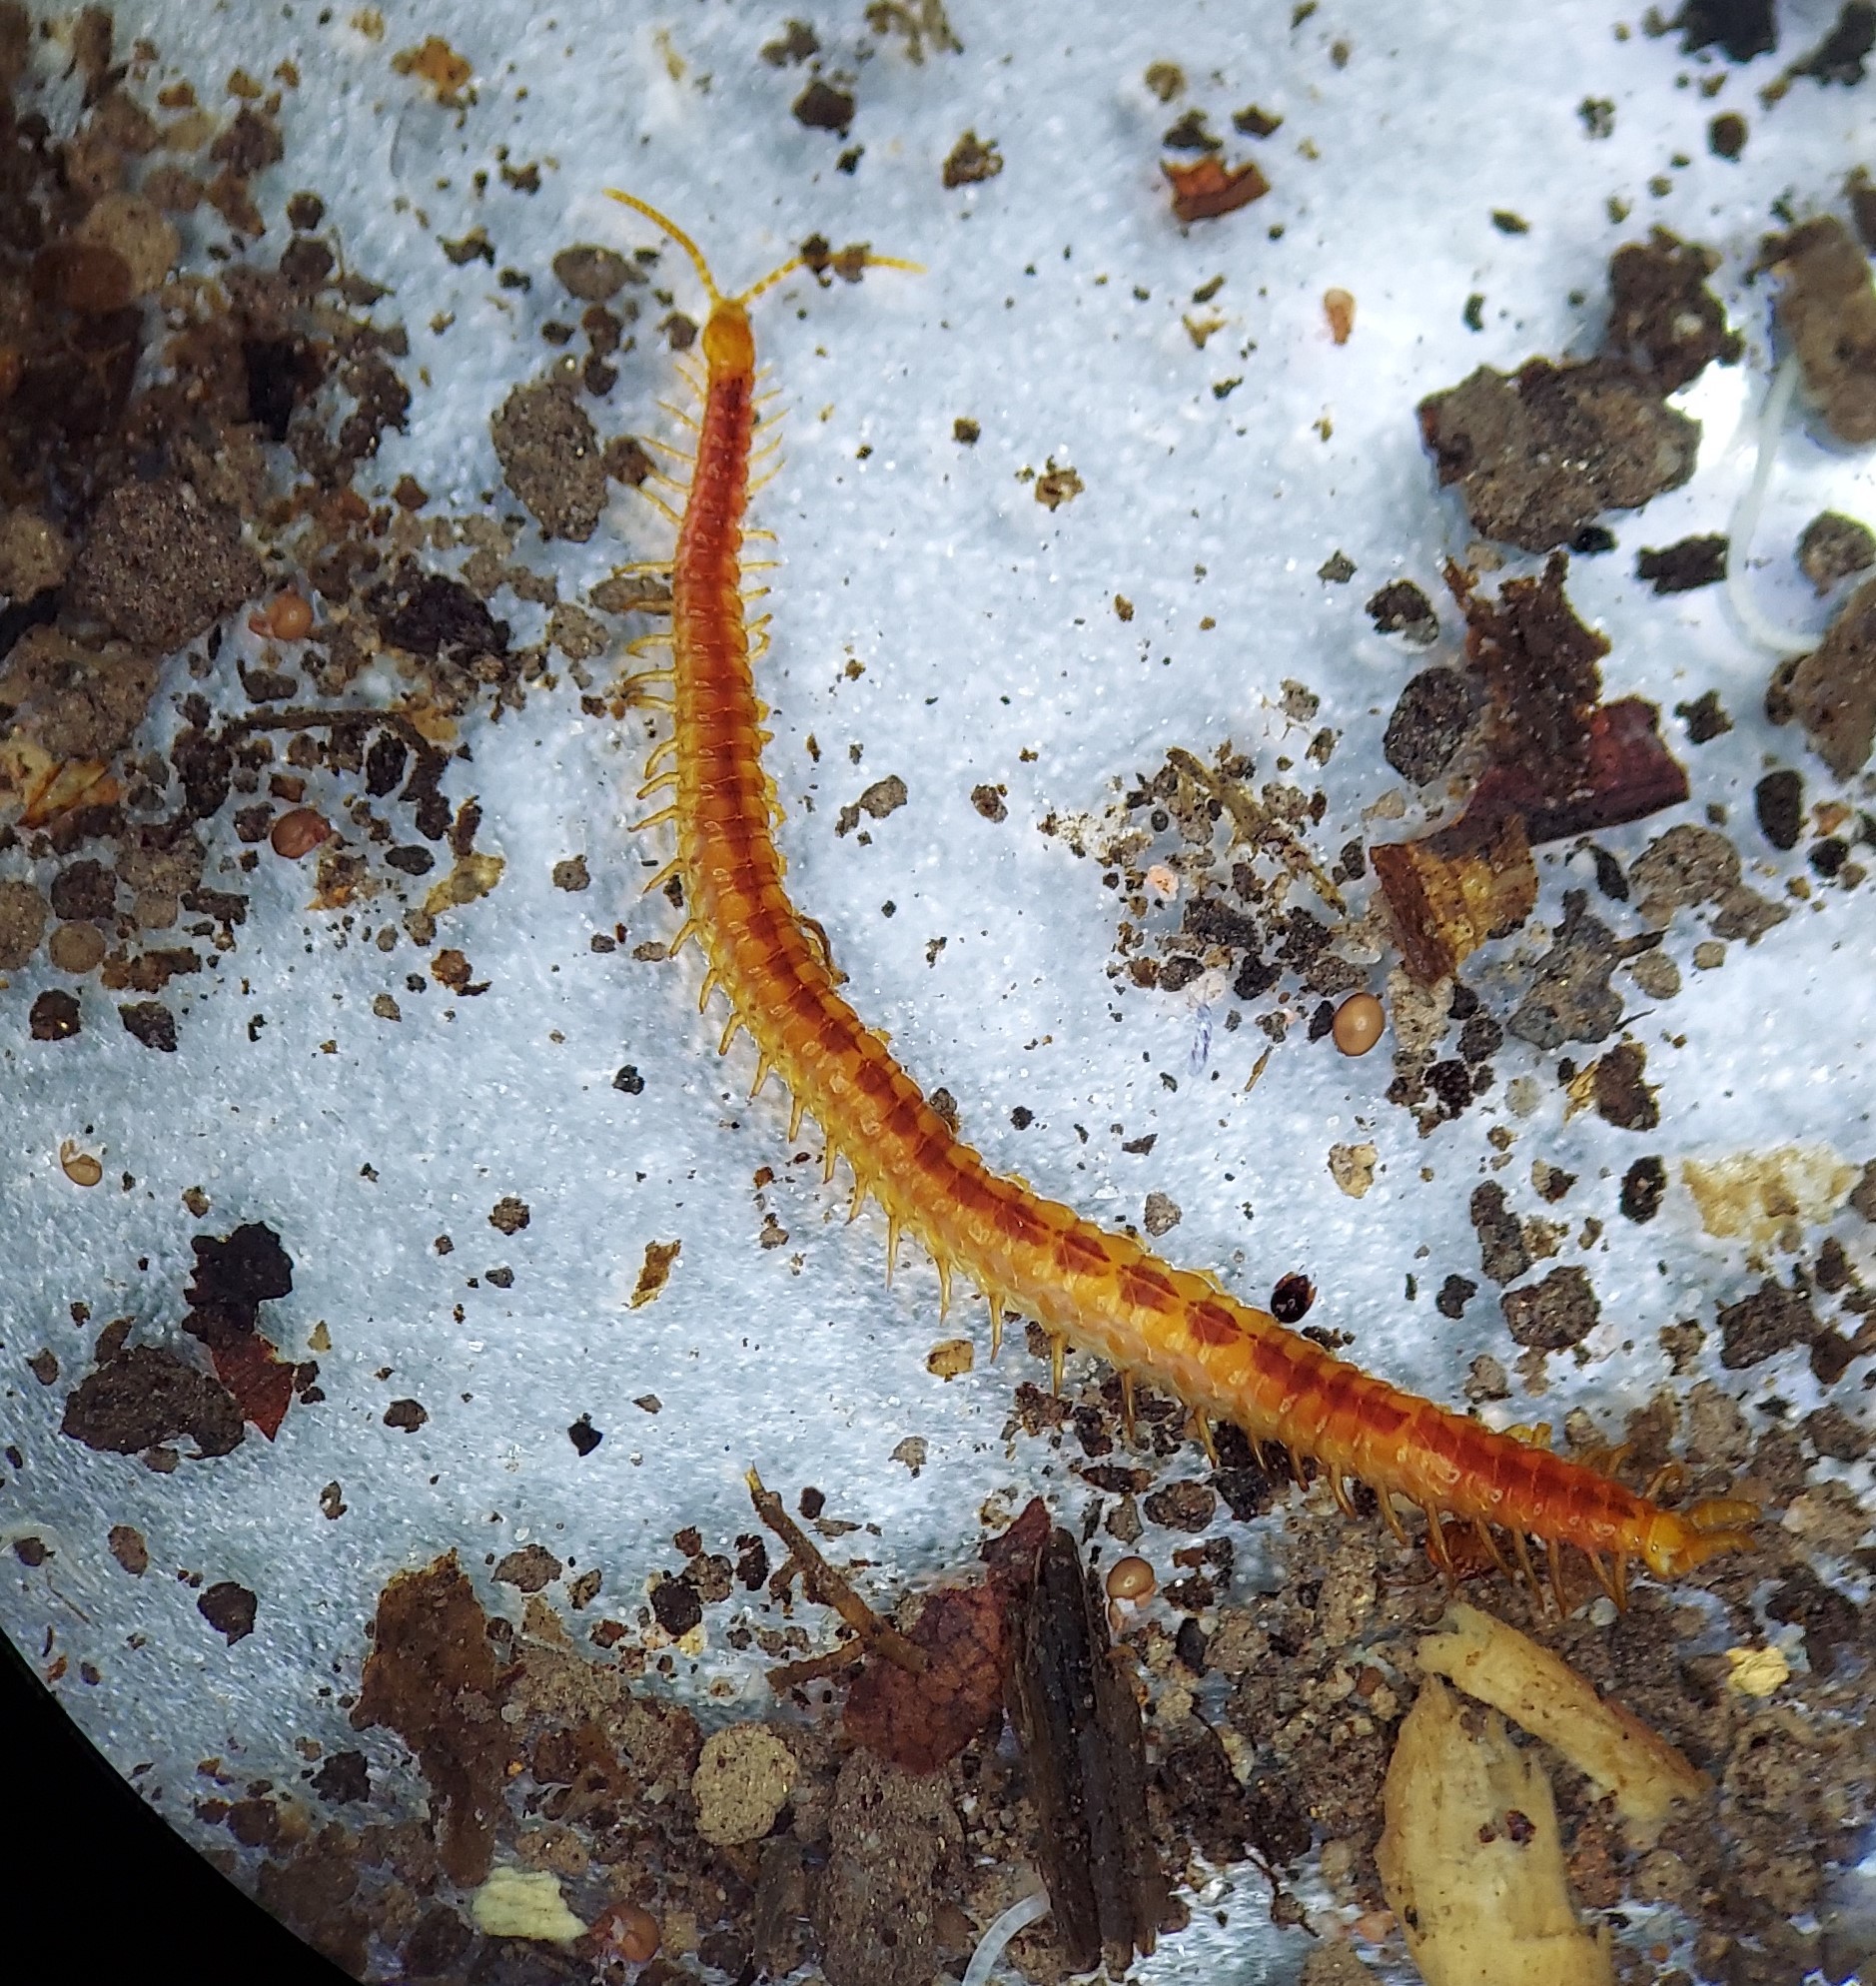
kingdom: Animalia
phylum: Arthropoda
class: Chilopoda
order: Geophilomorpha
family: Linotaeniidae
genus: Strigamia
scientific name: Strigamia branneri
